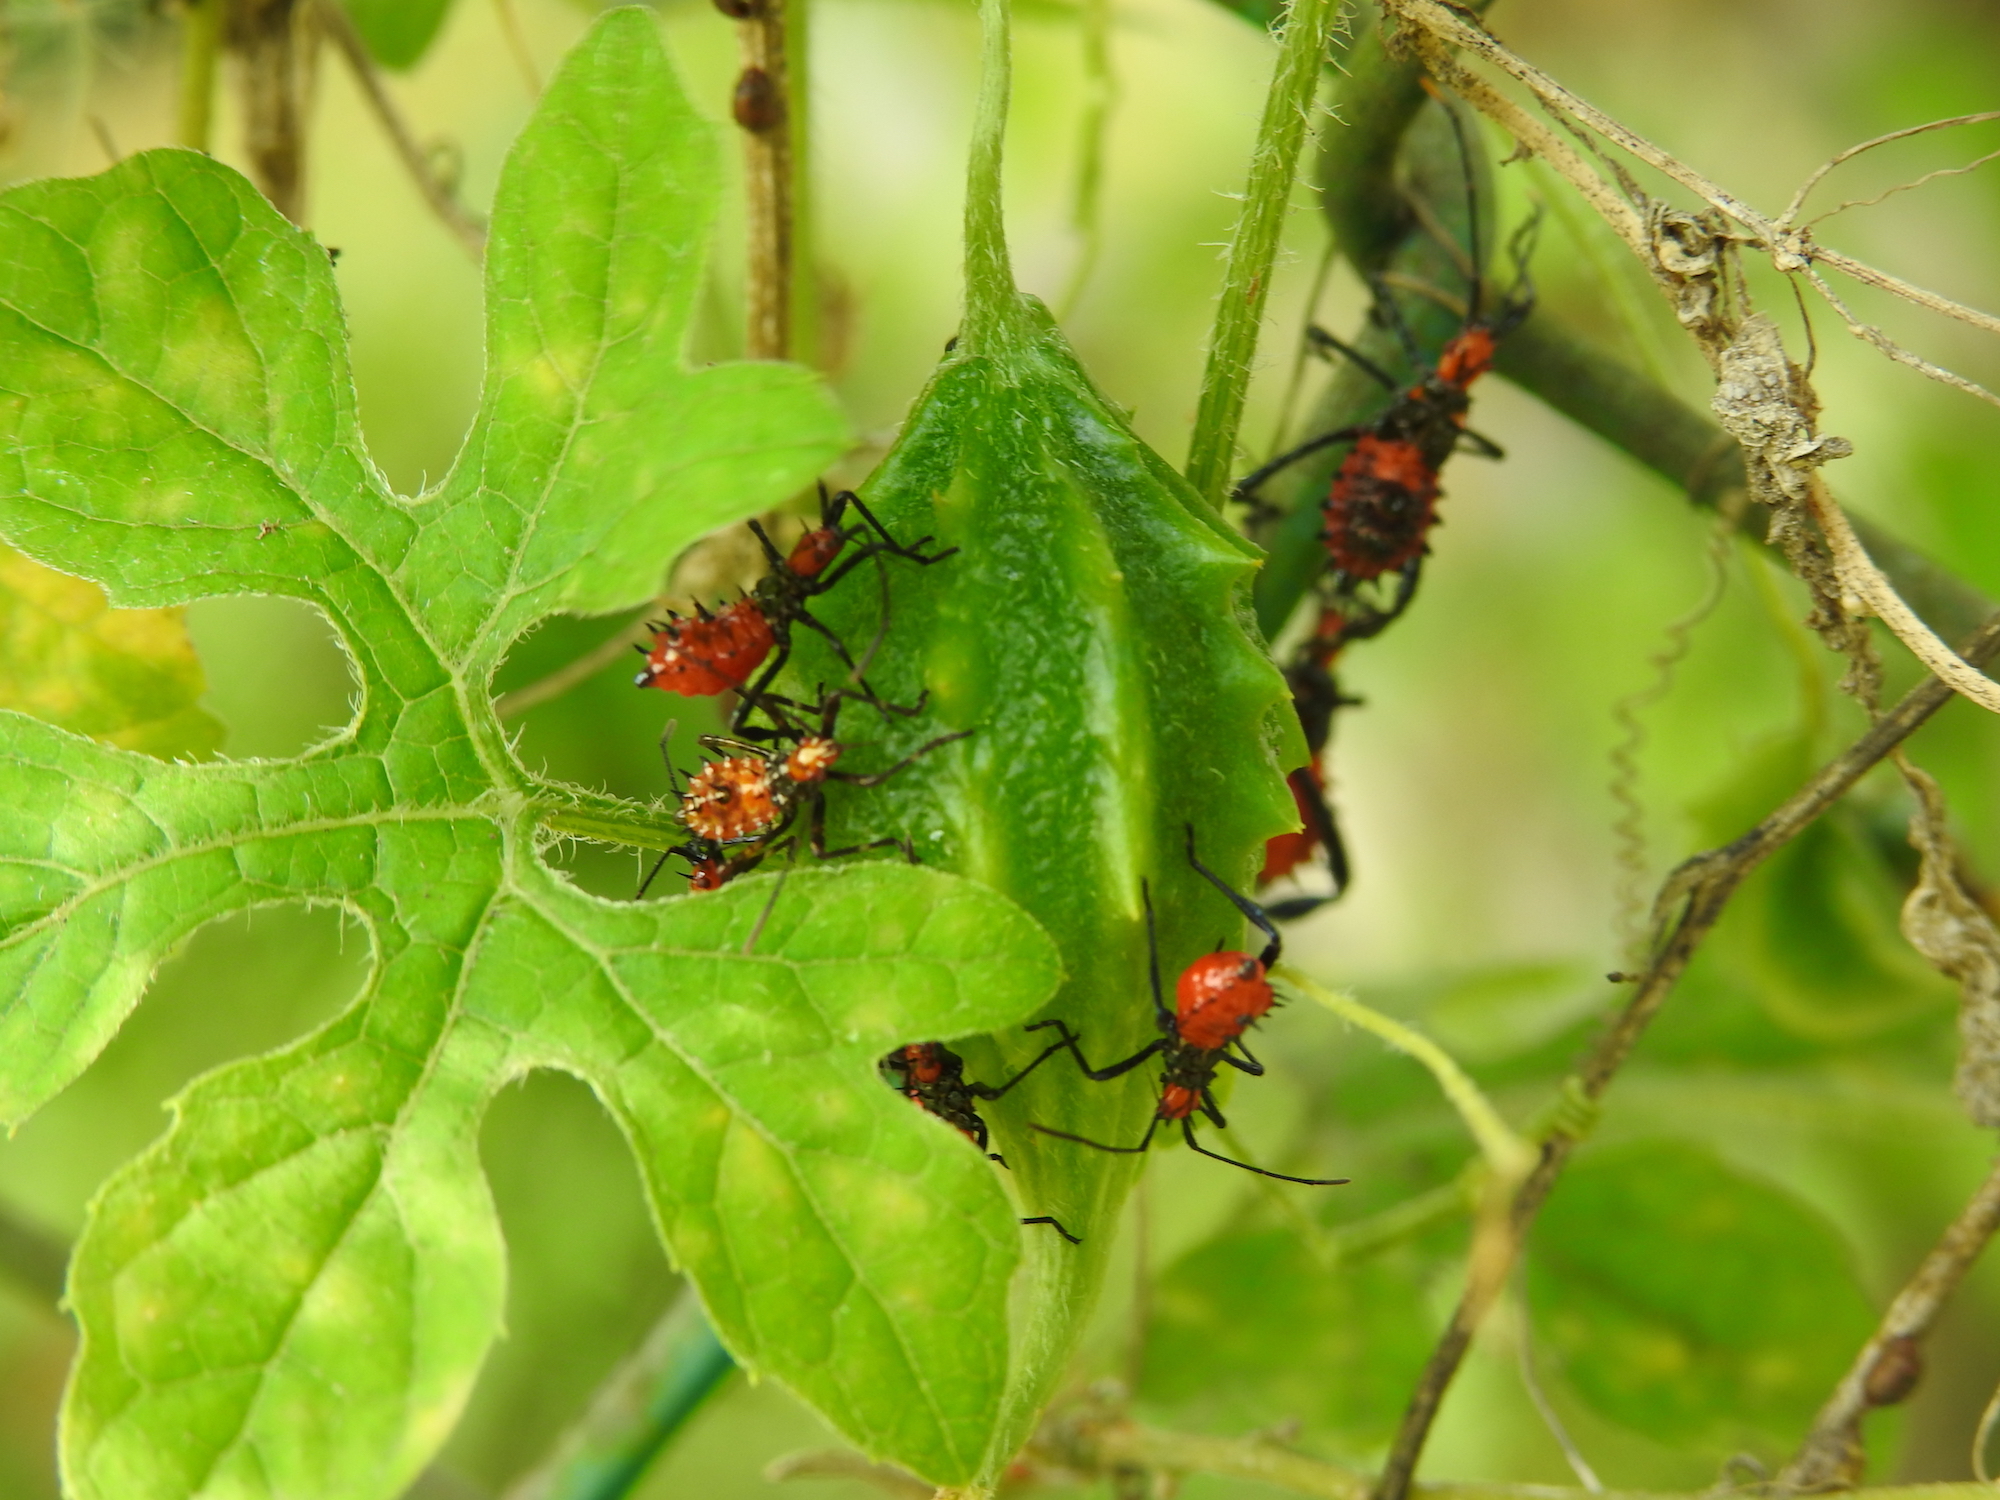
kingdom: Animalia
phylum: Arthropoda
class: Insecta
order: Hemiptera
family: Coreidae
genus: Leptoglossus
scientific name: Leptoglossus gonagra
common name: Citron bug
